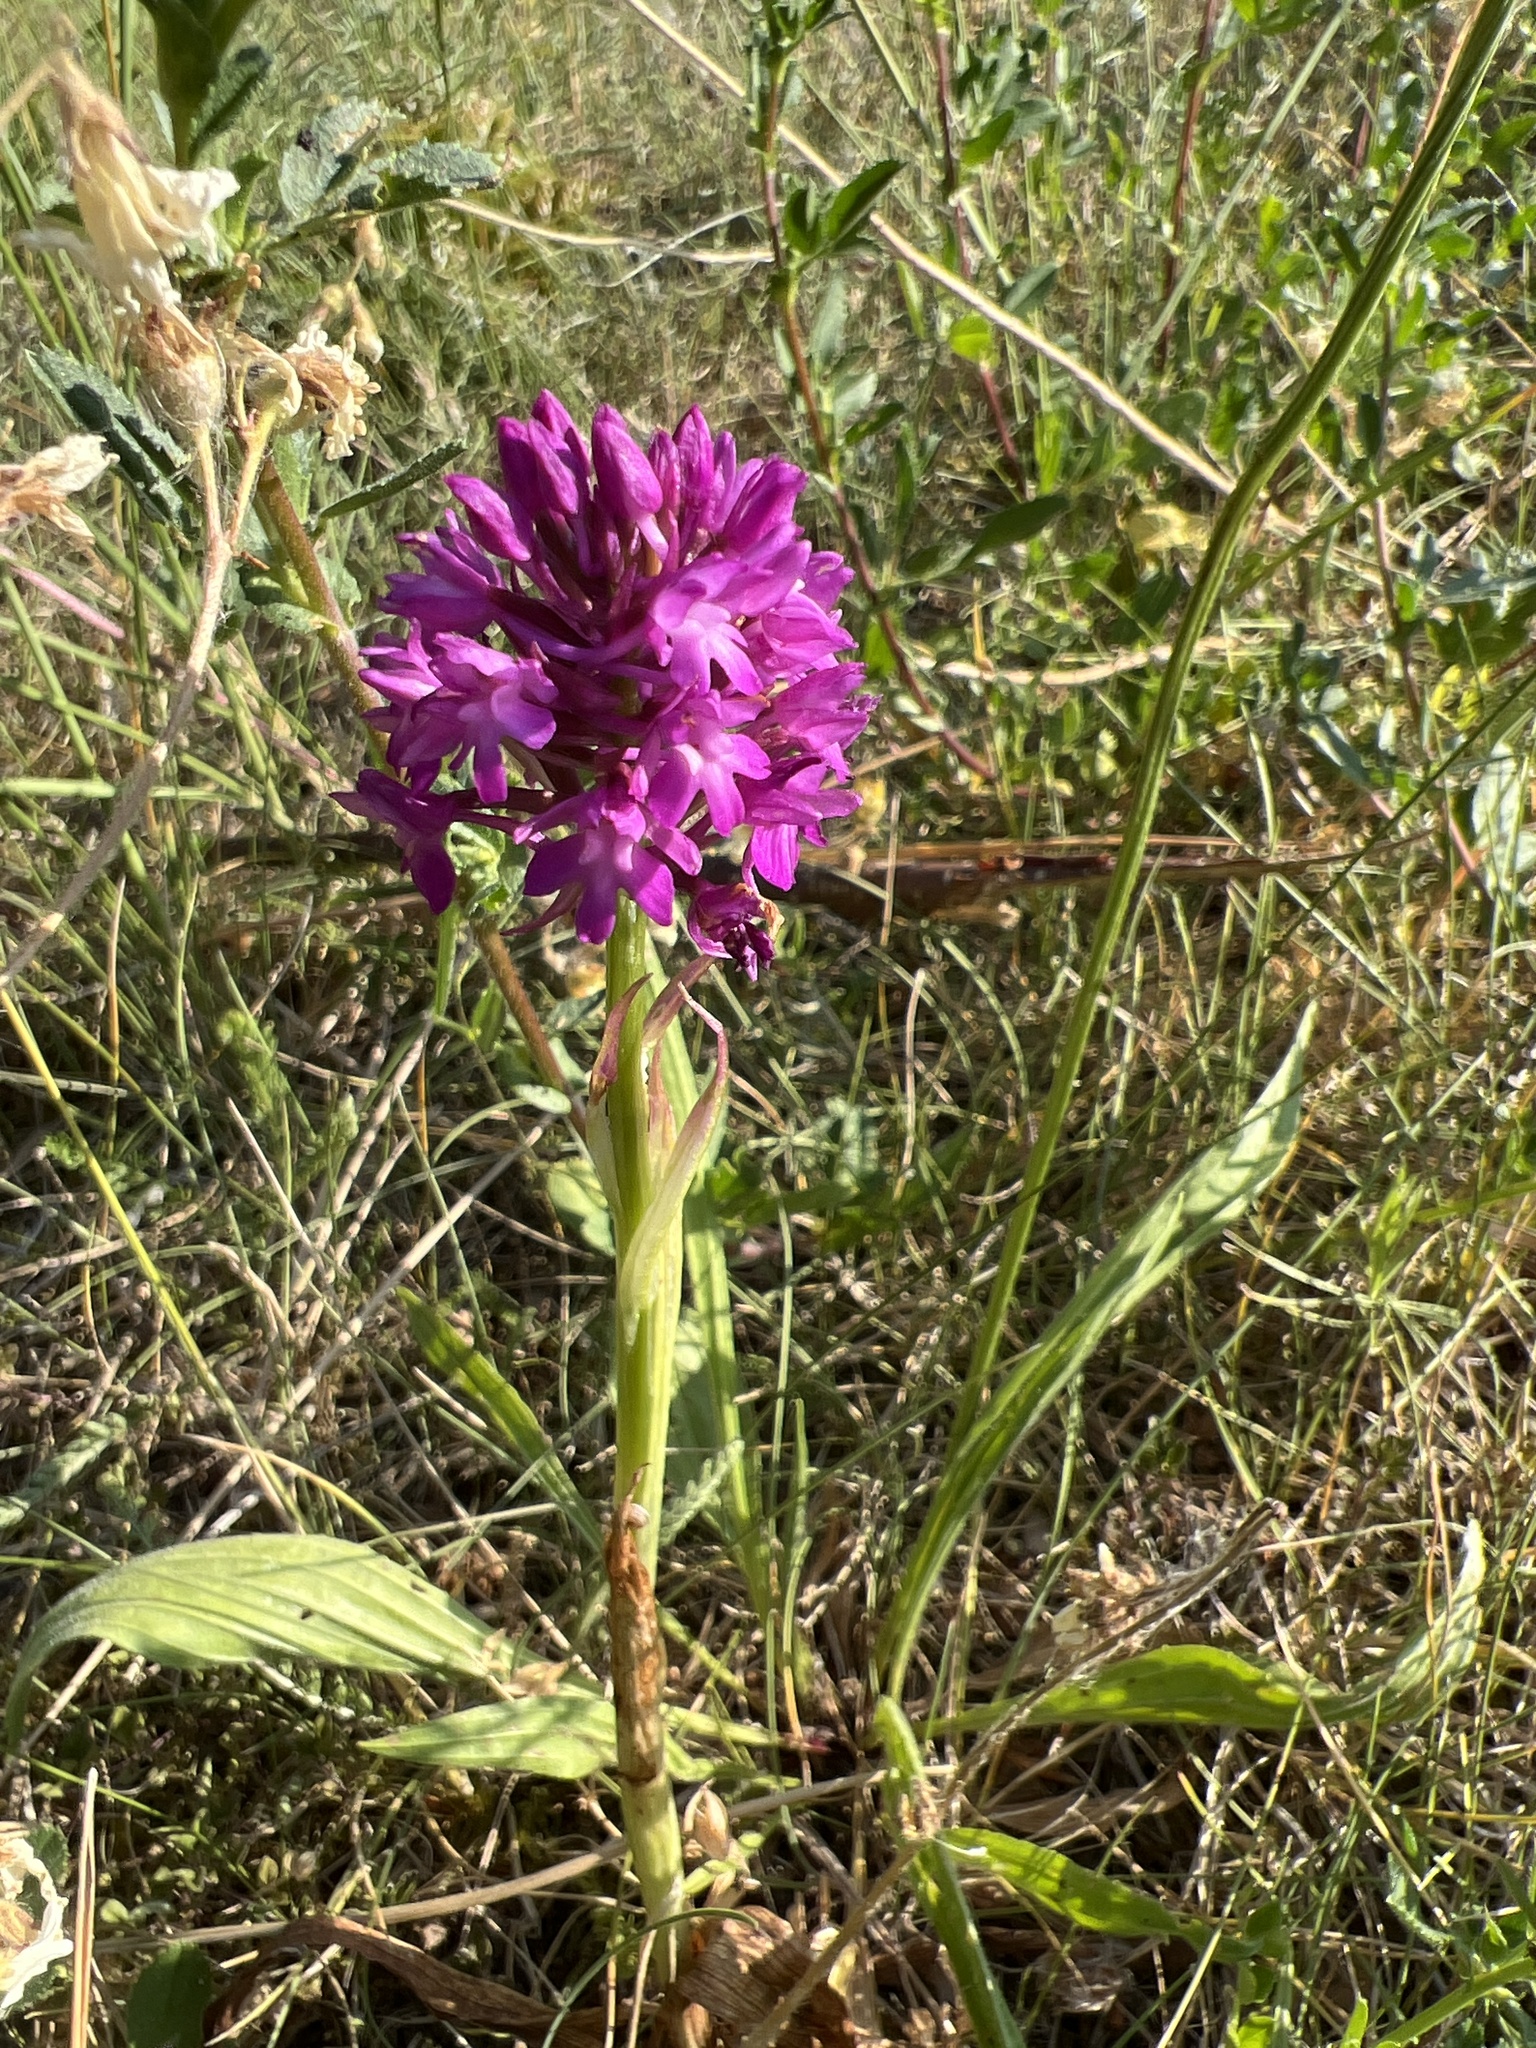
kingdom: Plantae
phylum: Tracheophyta
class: Liliopsida
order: Asparagales
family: Orchidaceae
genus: Anacamptis
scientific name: Anacamptis pyramidalis
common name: Pyramidal orchid
